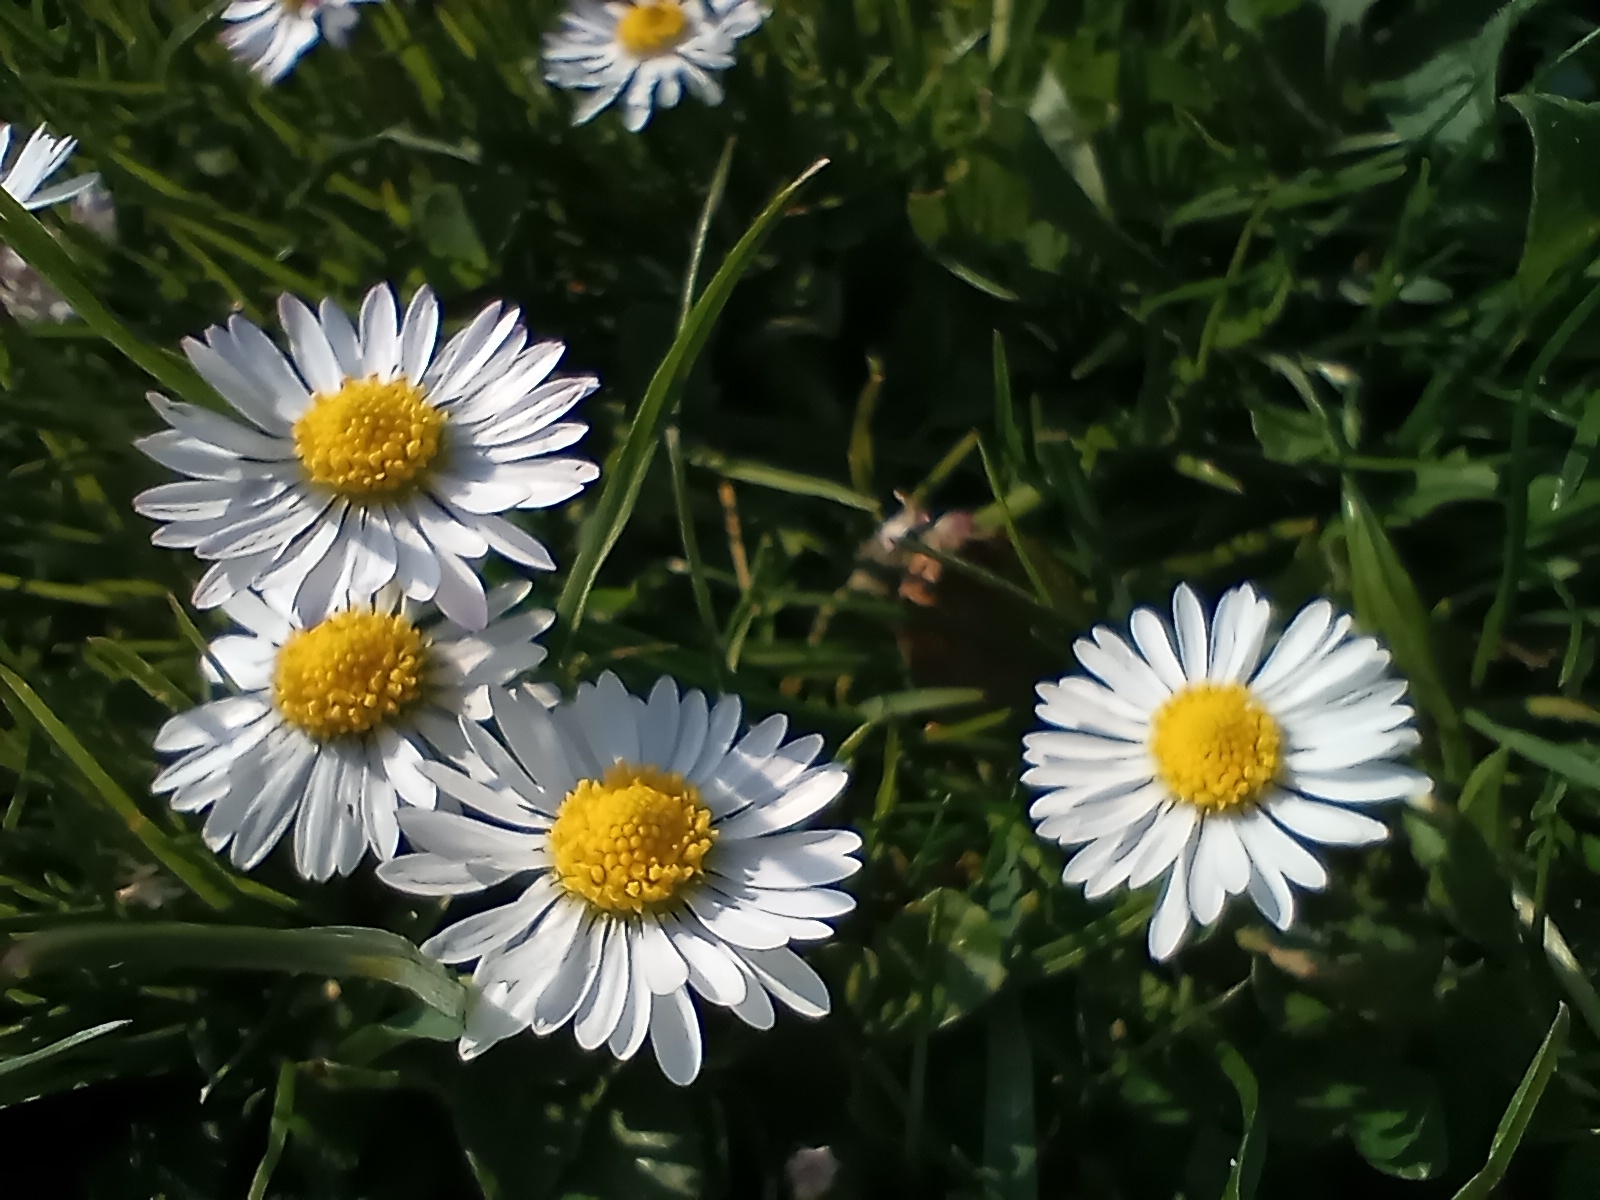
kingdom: Plantae
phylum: Tracheophyta
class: Magnoliopsida
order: Asterales
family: Asteraceae
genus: Bellis
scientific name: Bellis perennis
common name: Lawndaisy
